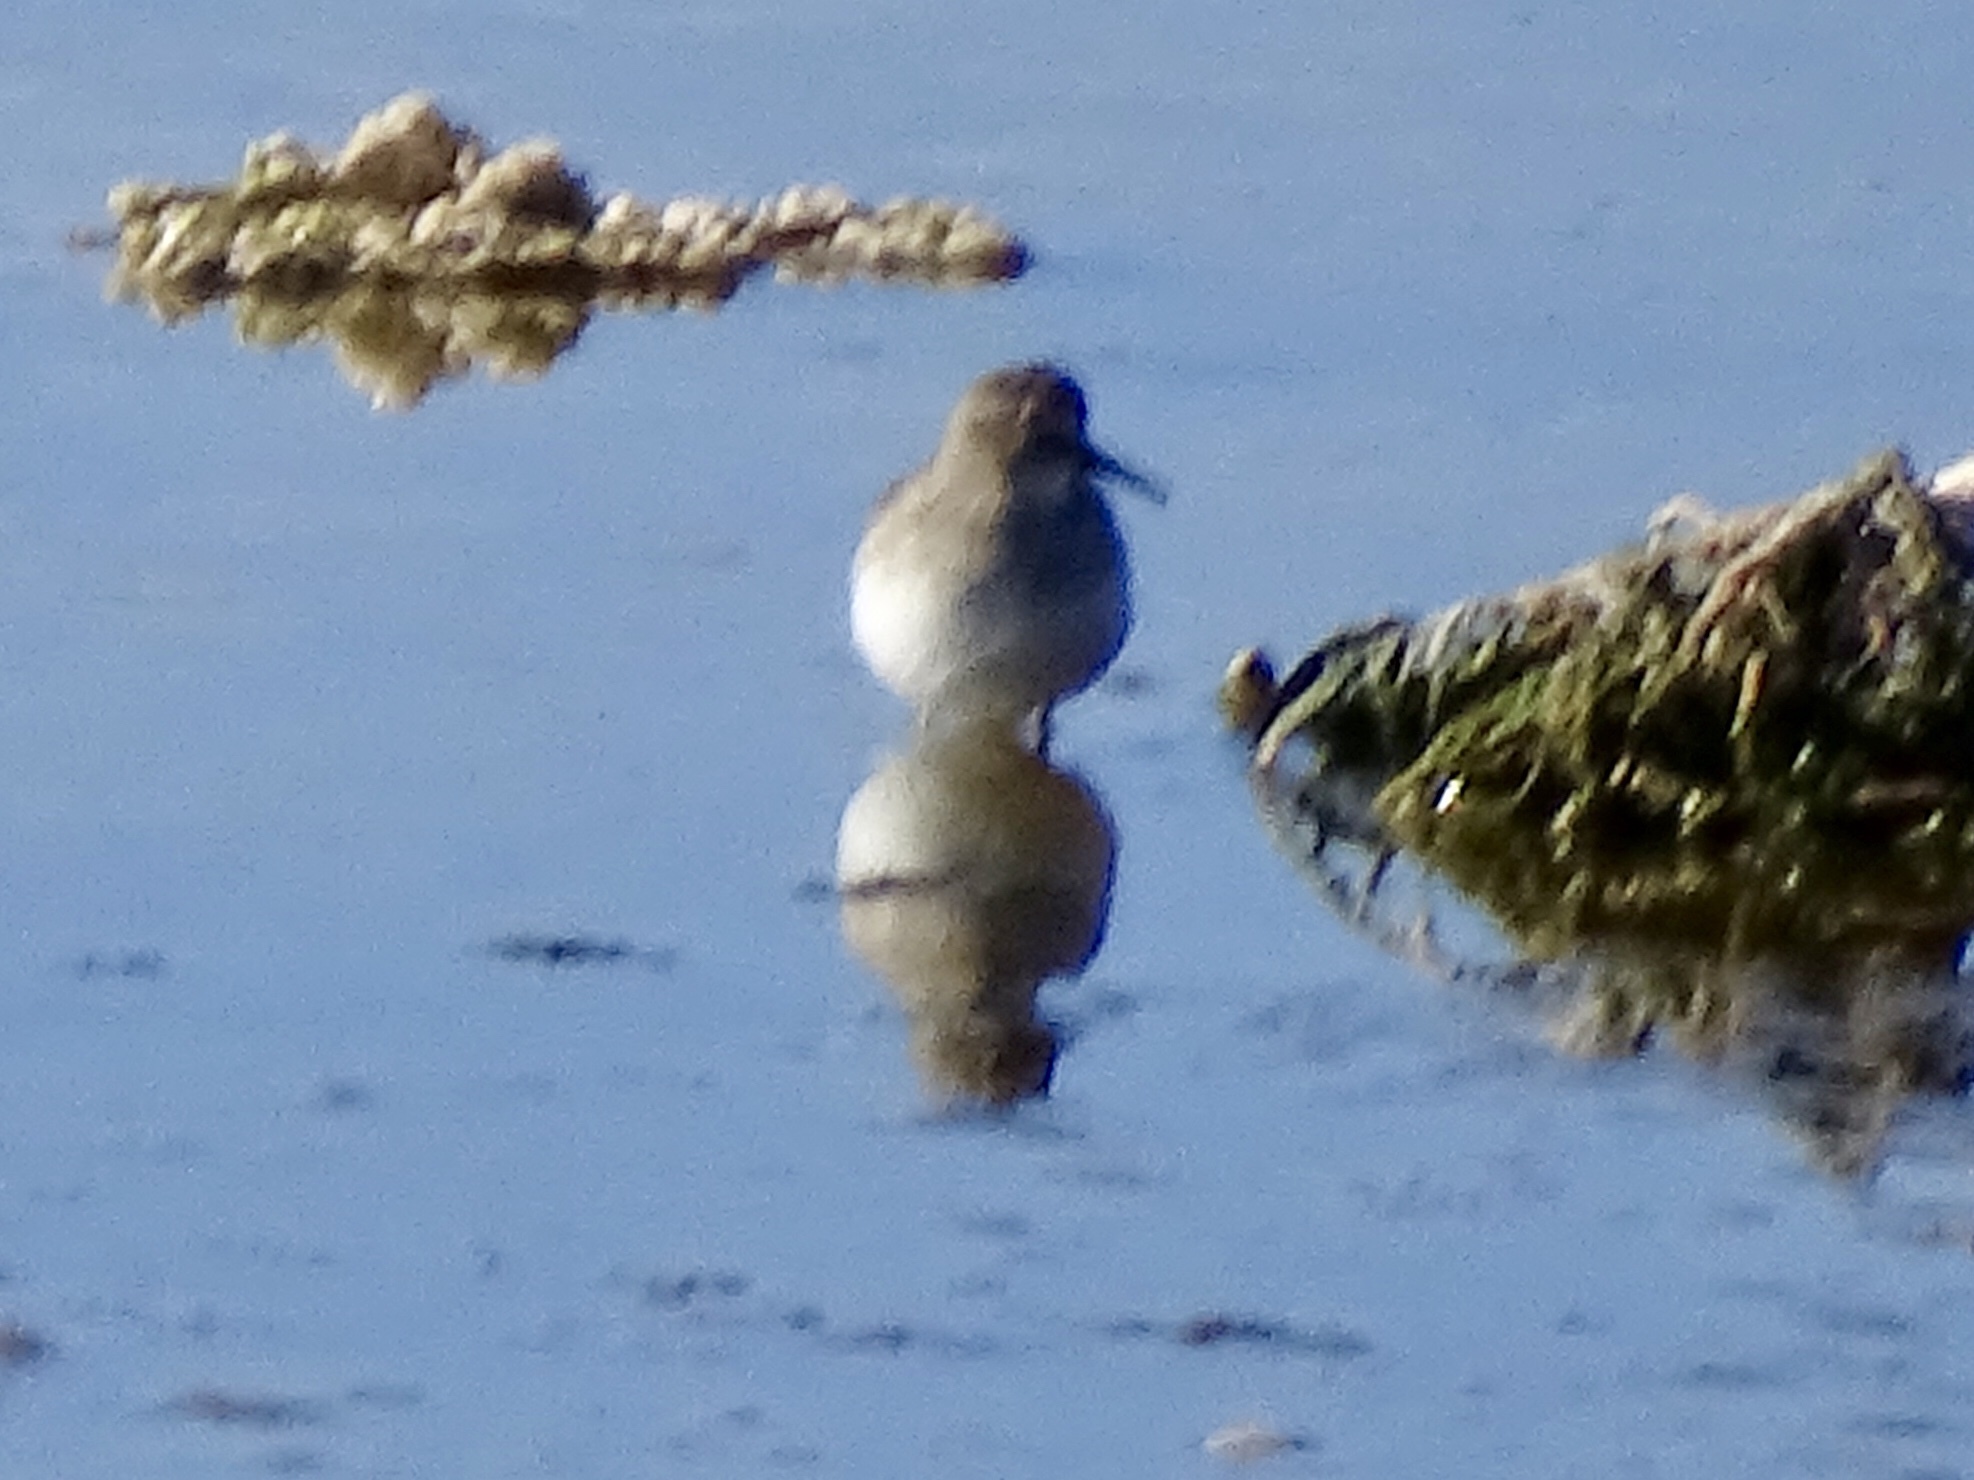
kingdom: Animalia
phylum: Chordata
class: Aves
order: Charadriiformes
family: Scolopacidae
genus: Calidris
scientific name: Calidris minutilla
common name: Least sandpiper
